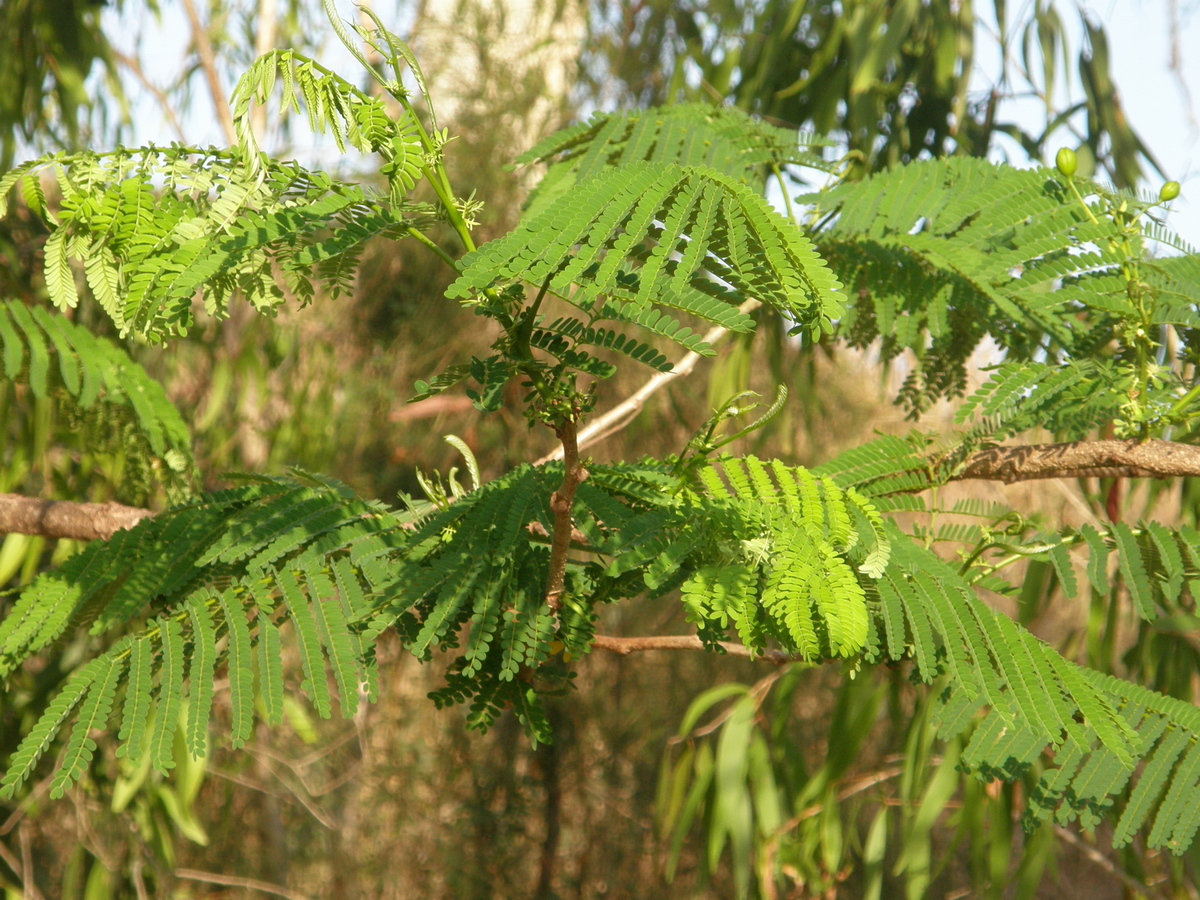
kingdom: Plantae
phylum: Tracheophyta
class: Magnoliopsida
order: Fabales
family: Fabaceae
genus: Delonix
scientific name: Delonix regia
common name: Royal poinciana
